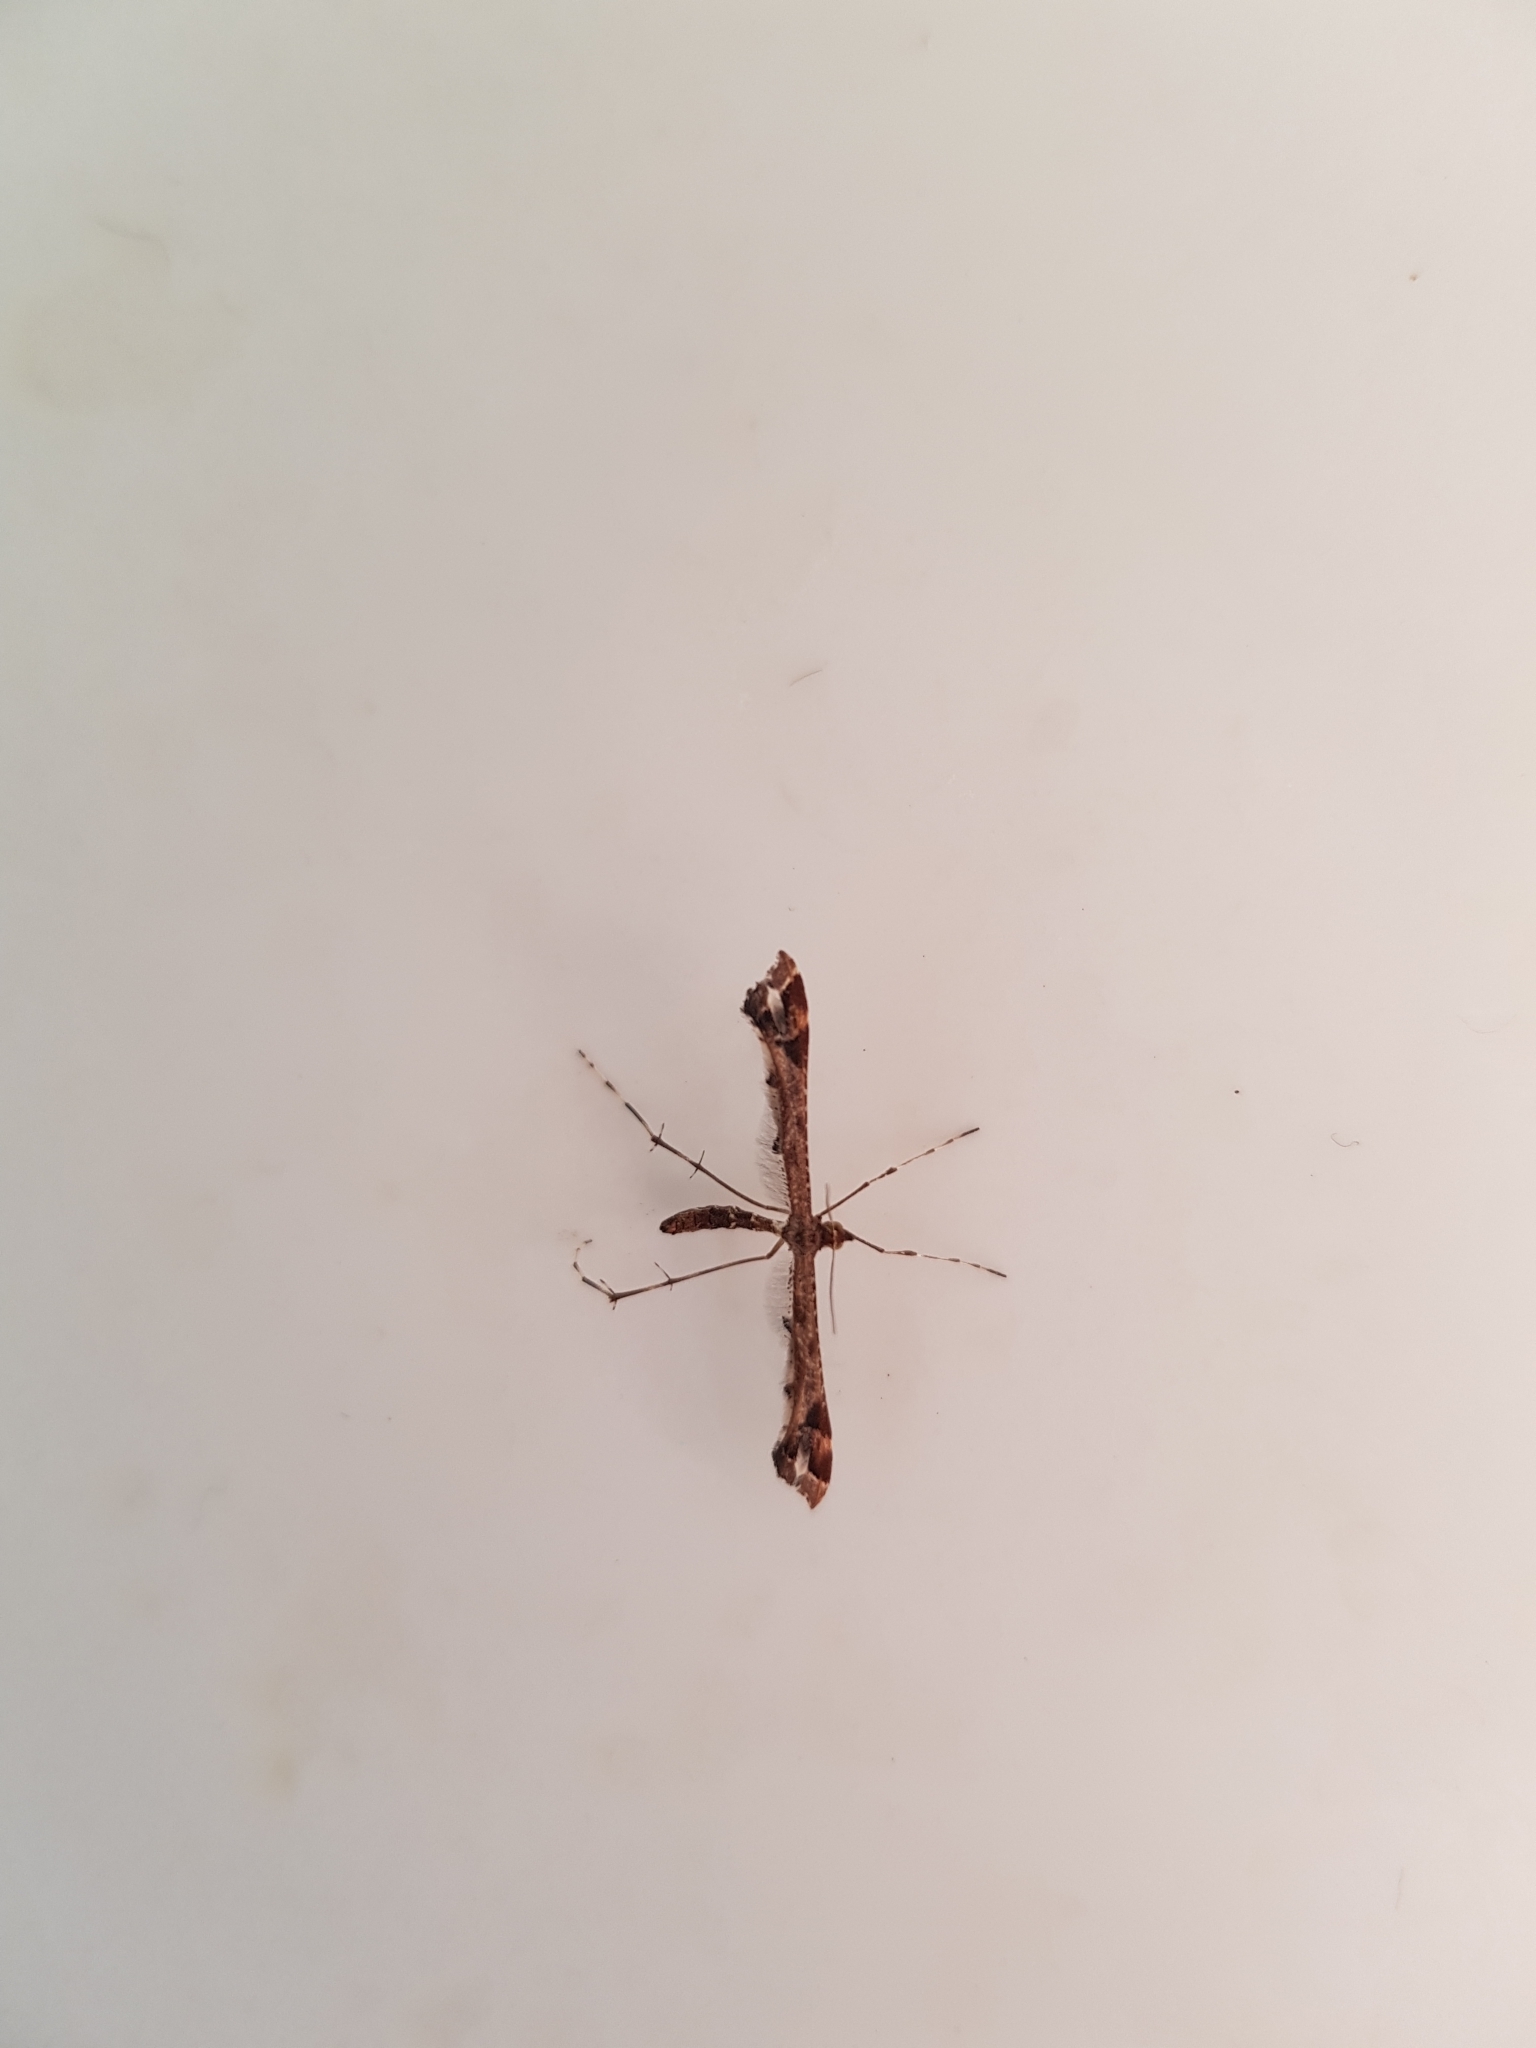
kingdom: Animalia
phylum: Arthropoda
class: Insecta
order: Lepidoptera
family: Pterophoridae
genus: Amblyptilia
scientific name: Amblyptilia acanthadactyla
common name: Beautiful plume
